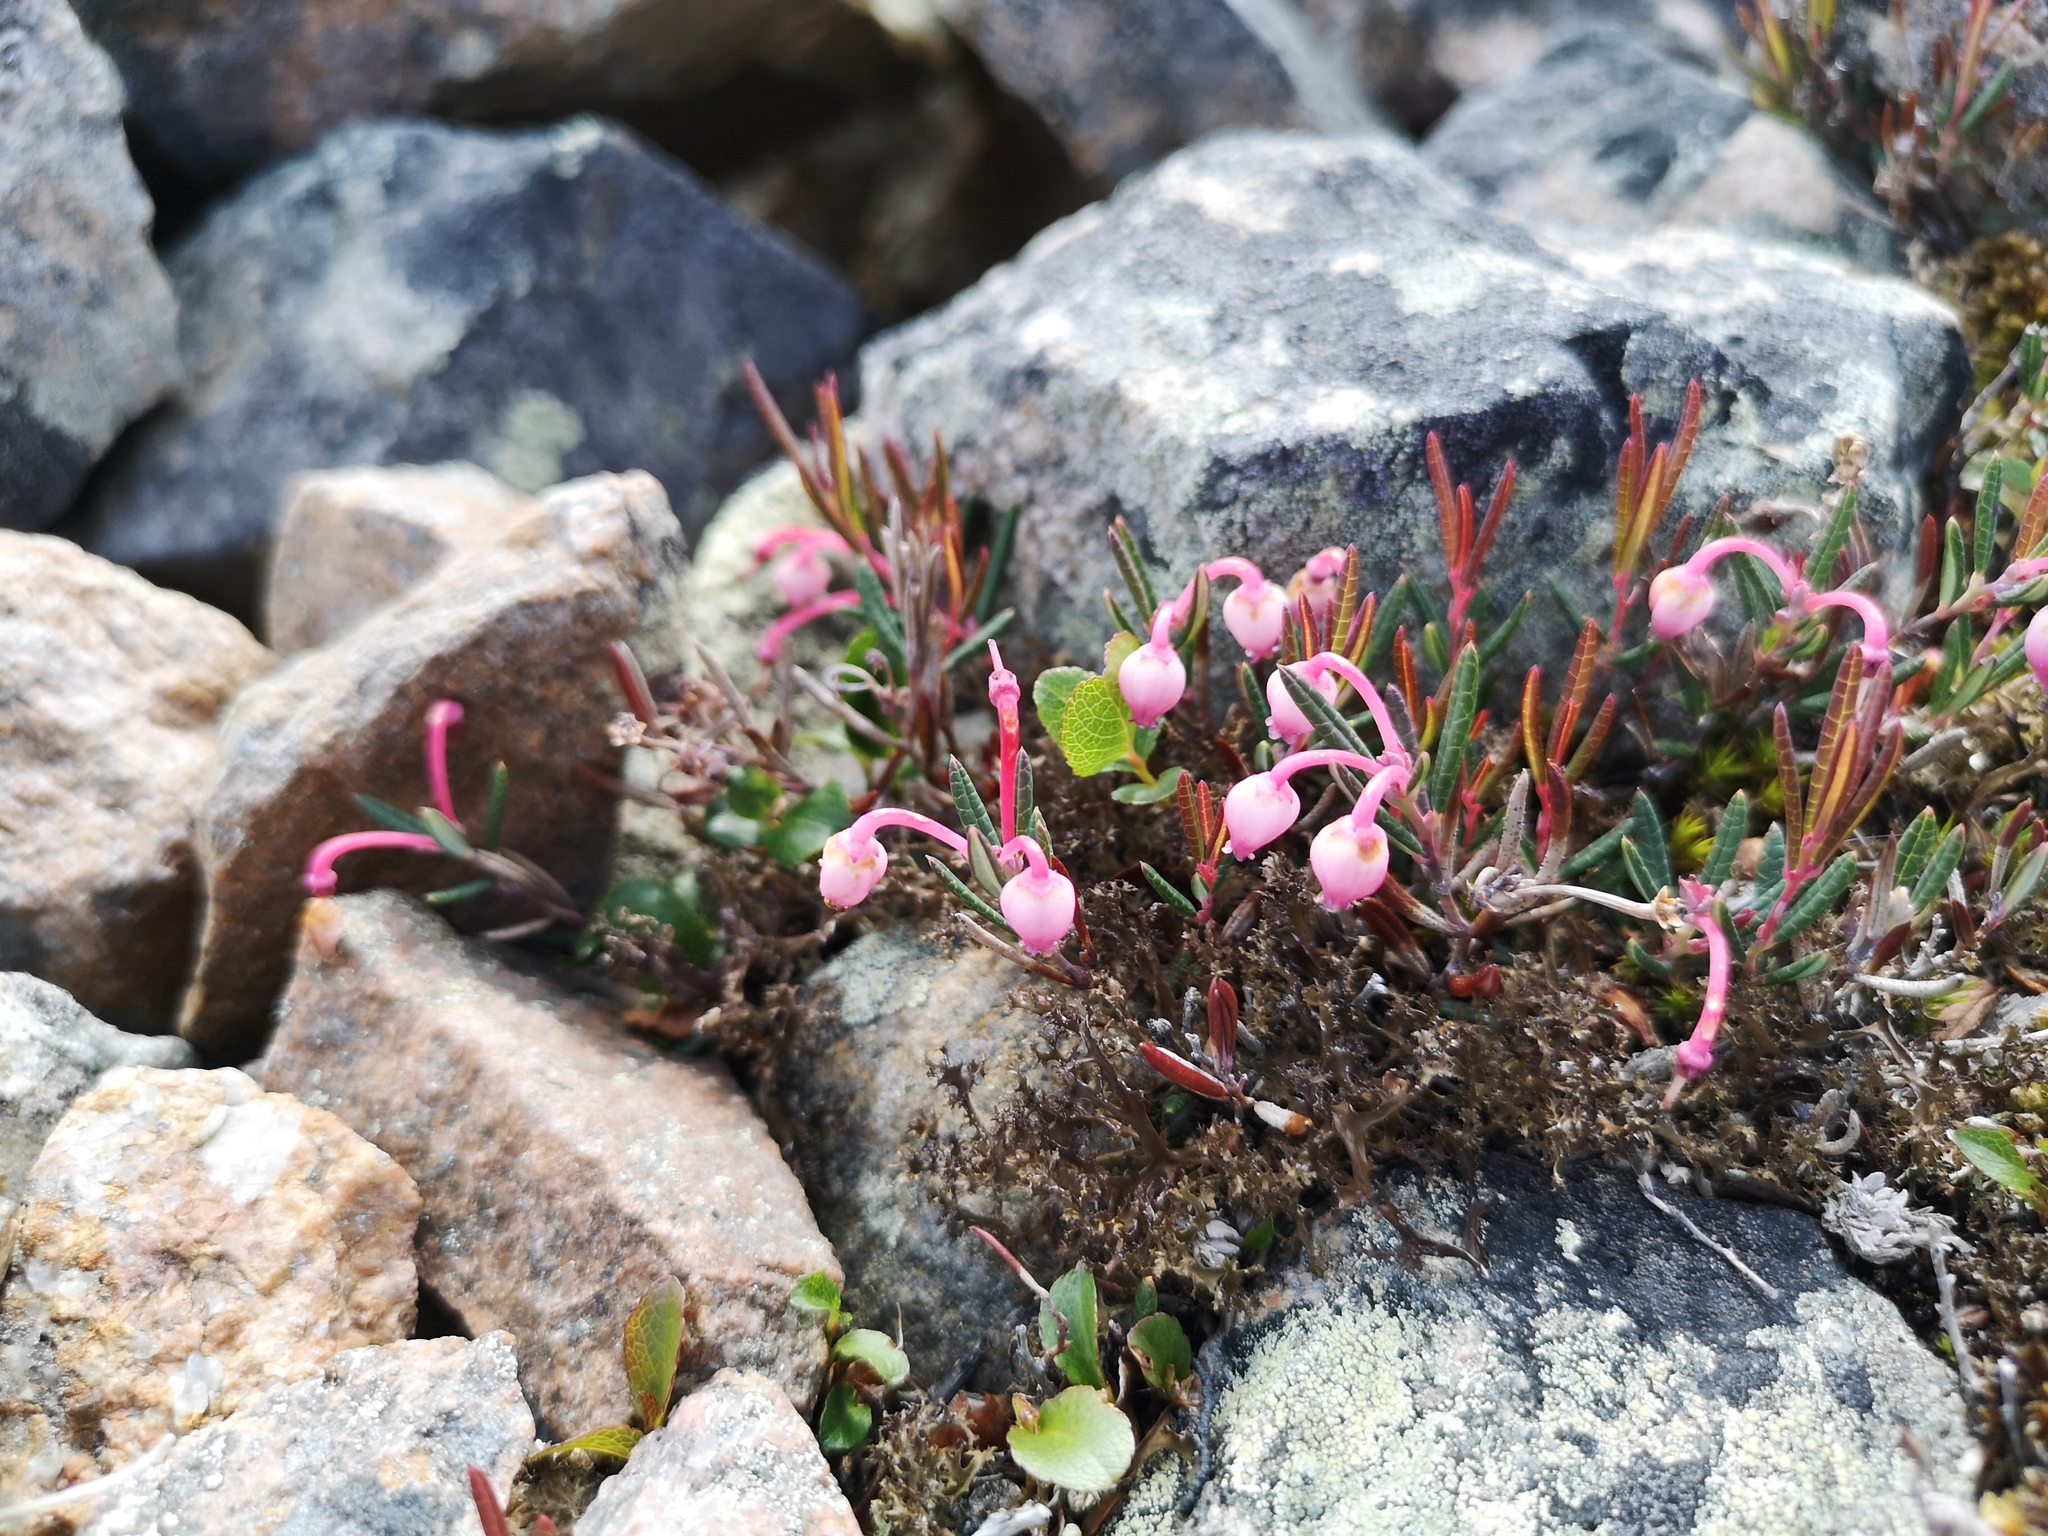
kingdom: Plantae
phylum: Tracheophyta
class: Magnoliopsida
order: Ericales
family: Ericaceae
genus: Andromeda
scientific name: Andromeda polifolia
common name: Bog-rosemary
